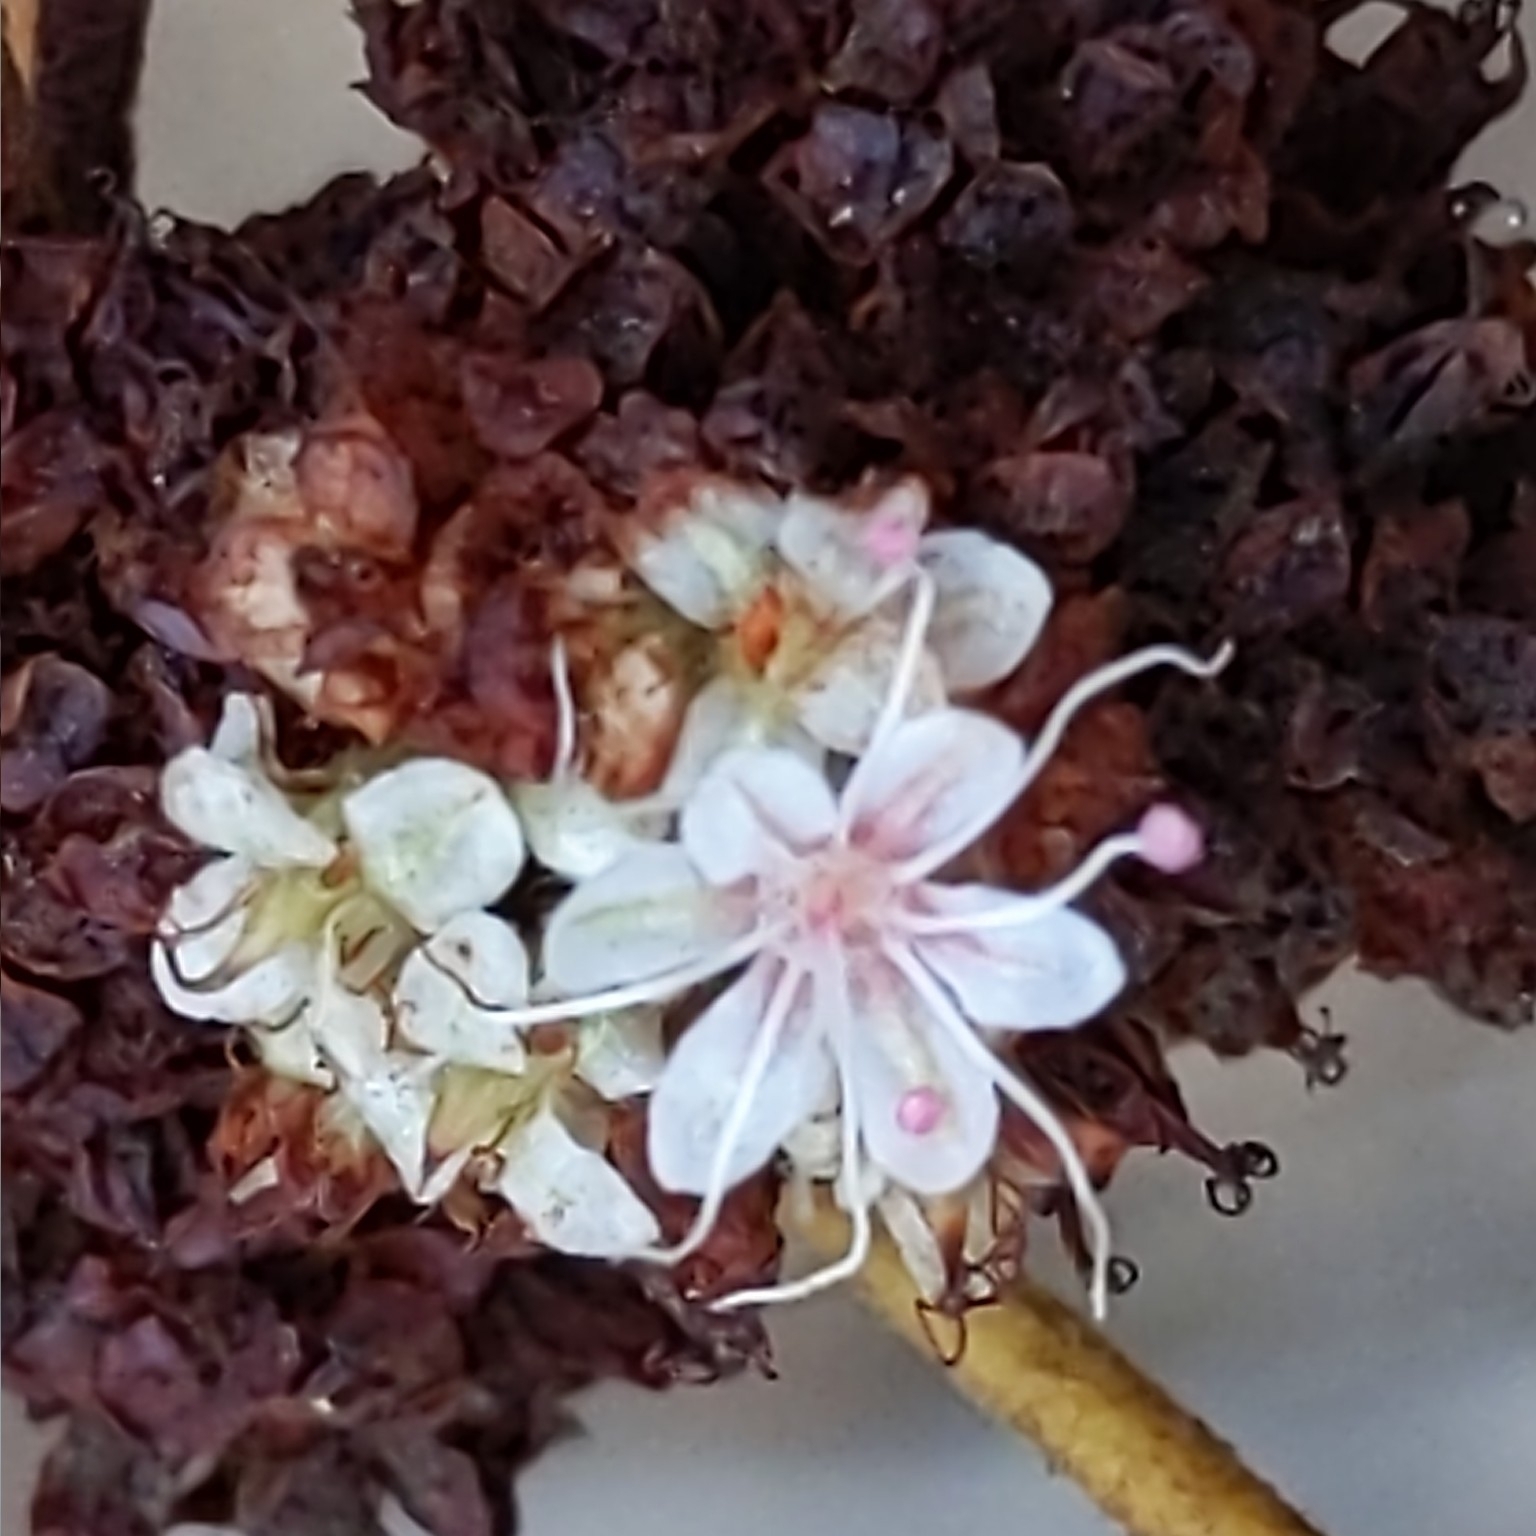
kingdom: Plantae
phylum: Tracheophyta
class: Magnoliopsida
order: Caryophyllales
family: Polygonaceae
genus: Eriogonum
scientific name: Eriogonum fasciculatum
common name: California wild buckwheat
